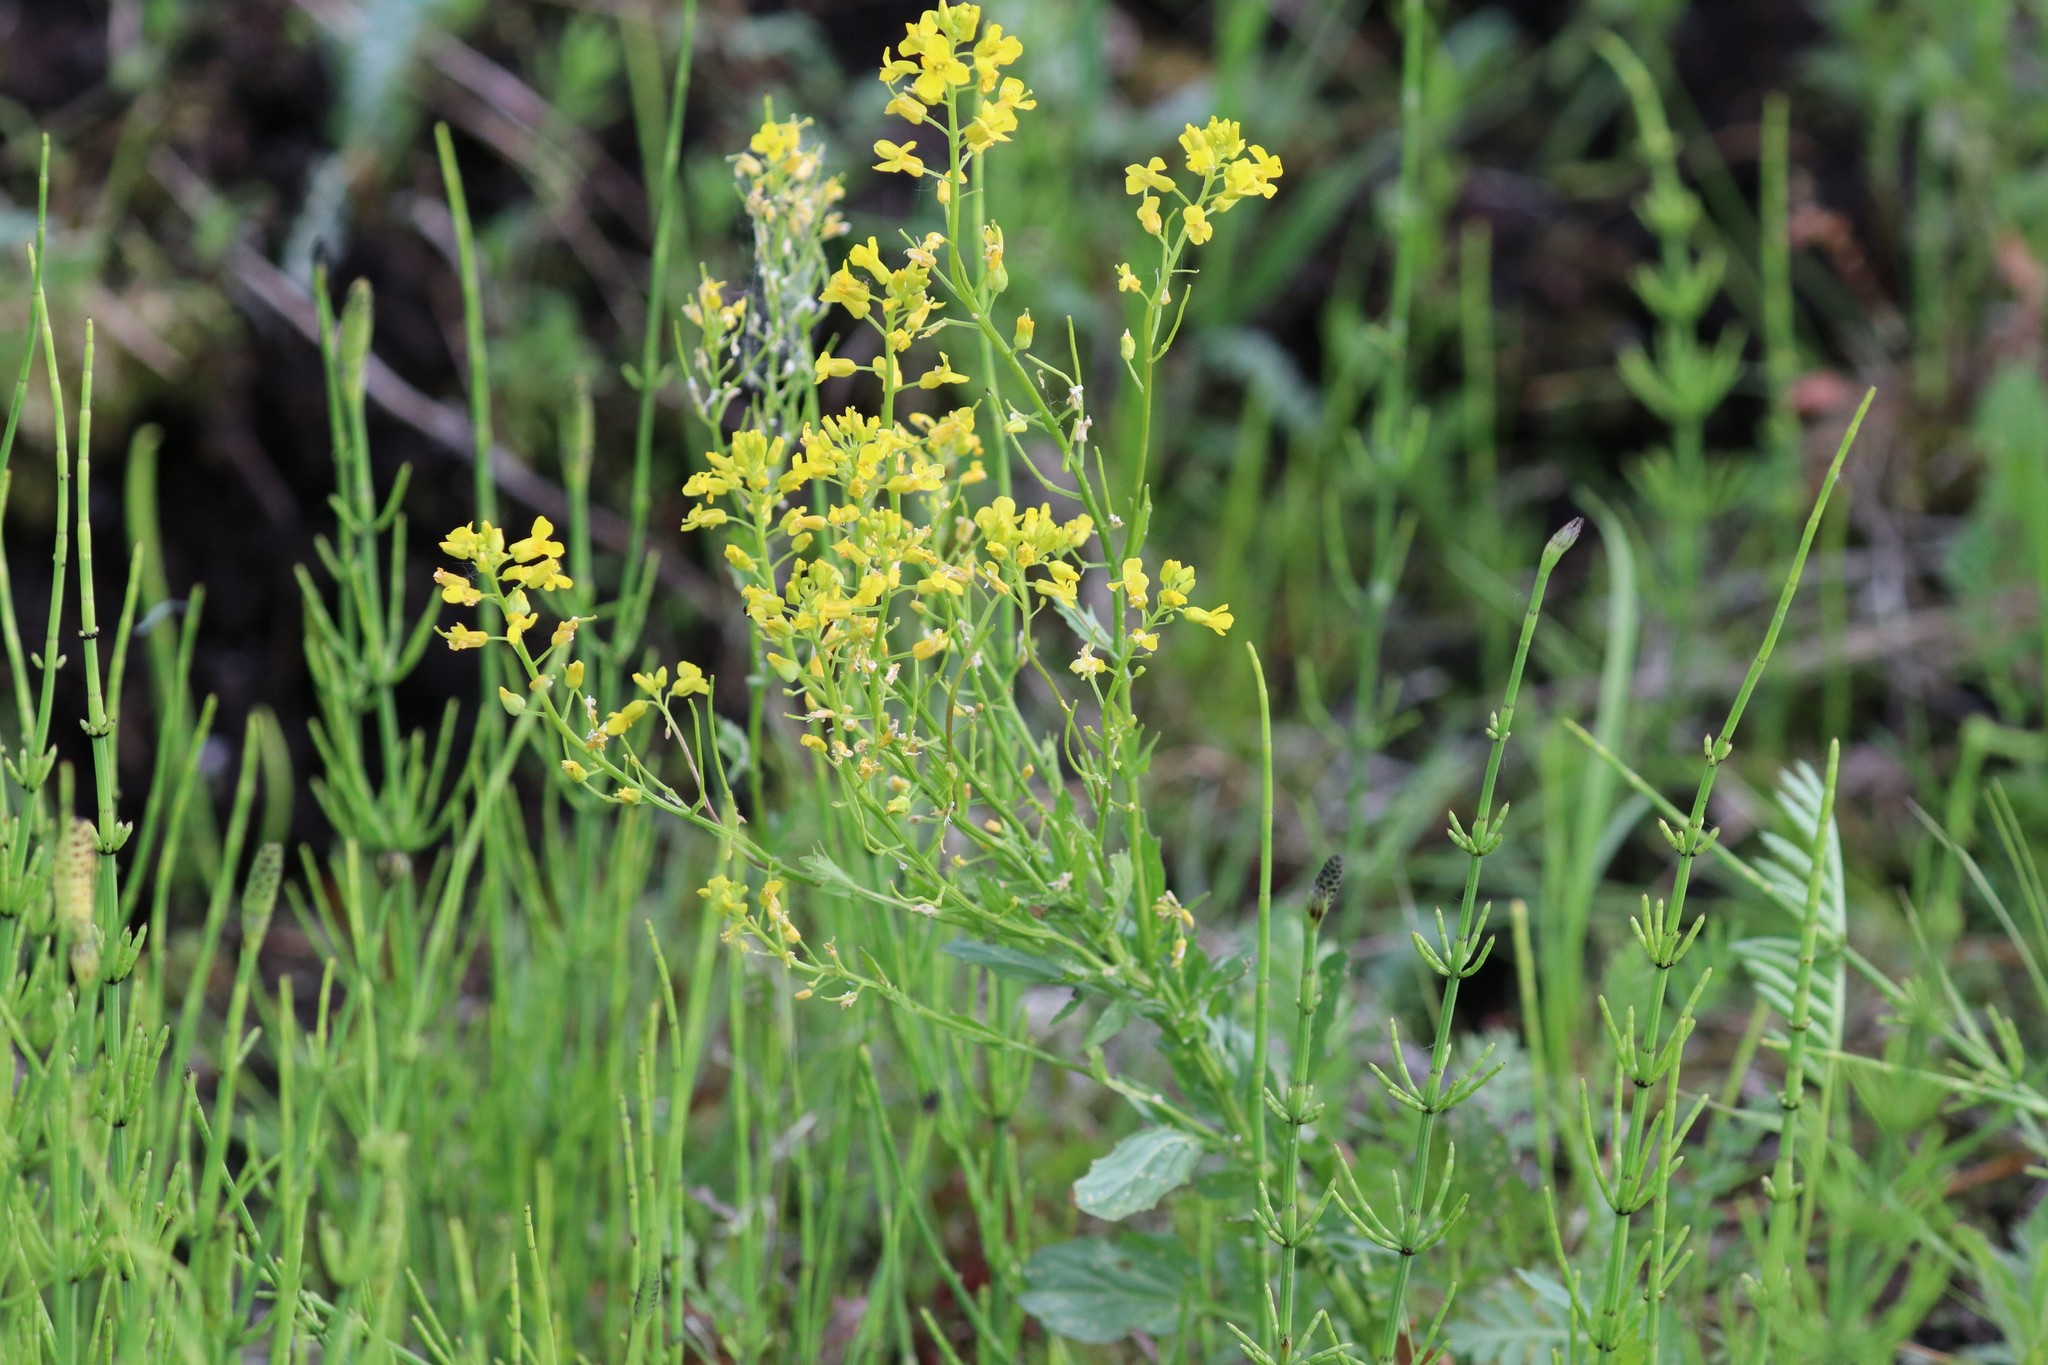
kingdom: Plantae
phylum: Tracheophyta
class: Magnoliopsida
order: Brassicales
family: Brassicaceae
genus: Barbarea
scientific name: Barbarea vulgaris
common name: Cressy-greens
